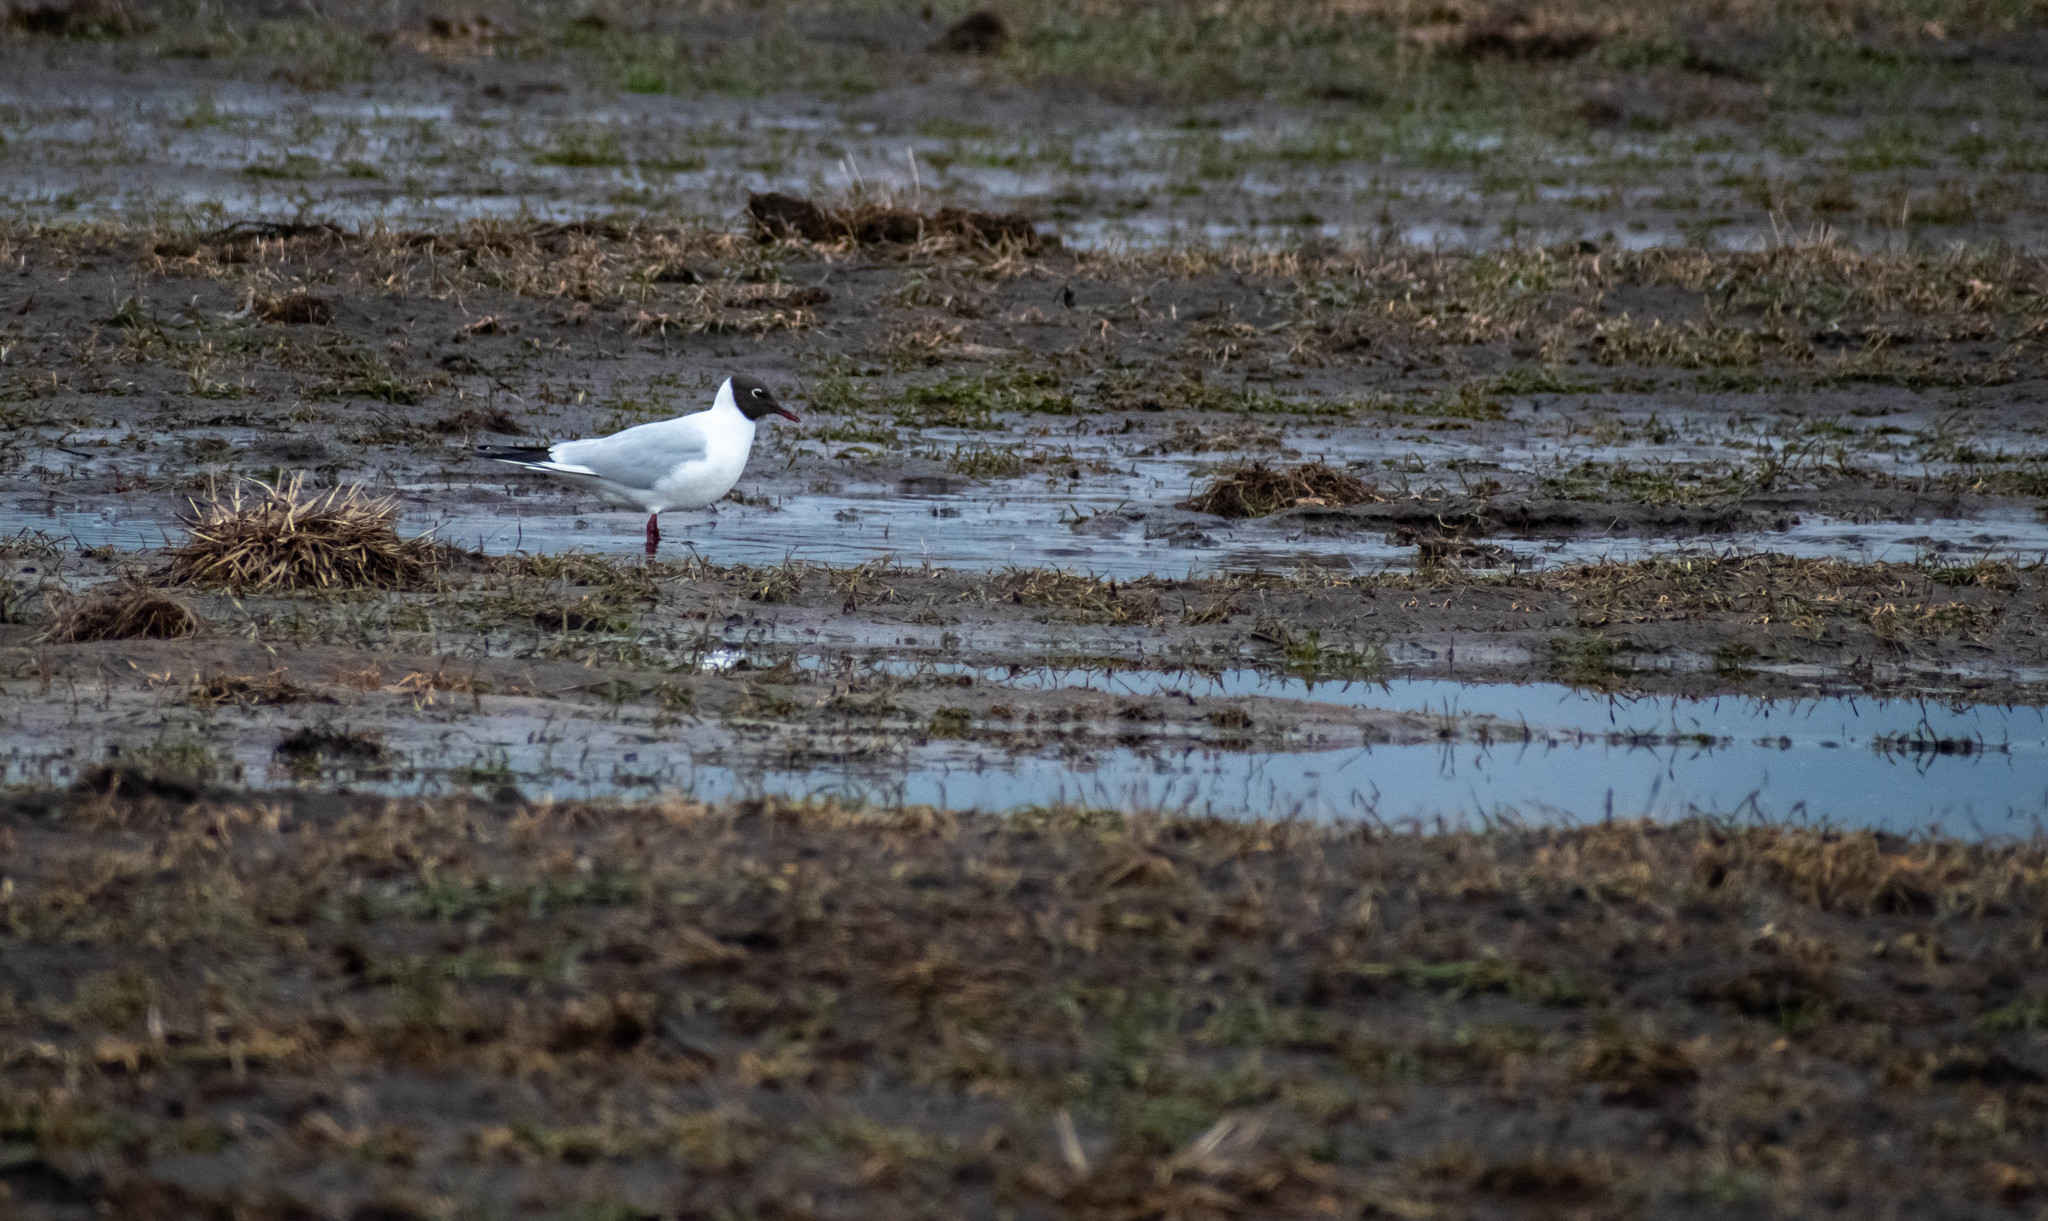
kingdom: Animalia
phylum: Chordata
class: Aves
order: Charadriiformes
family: Laridae
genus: Chroicocephalus
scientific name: Chroicocephalus ridibundus
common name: Black-headed gull
